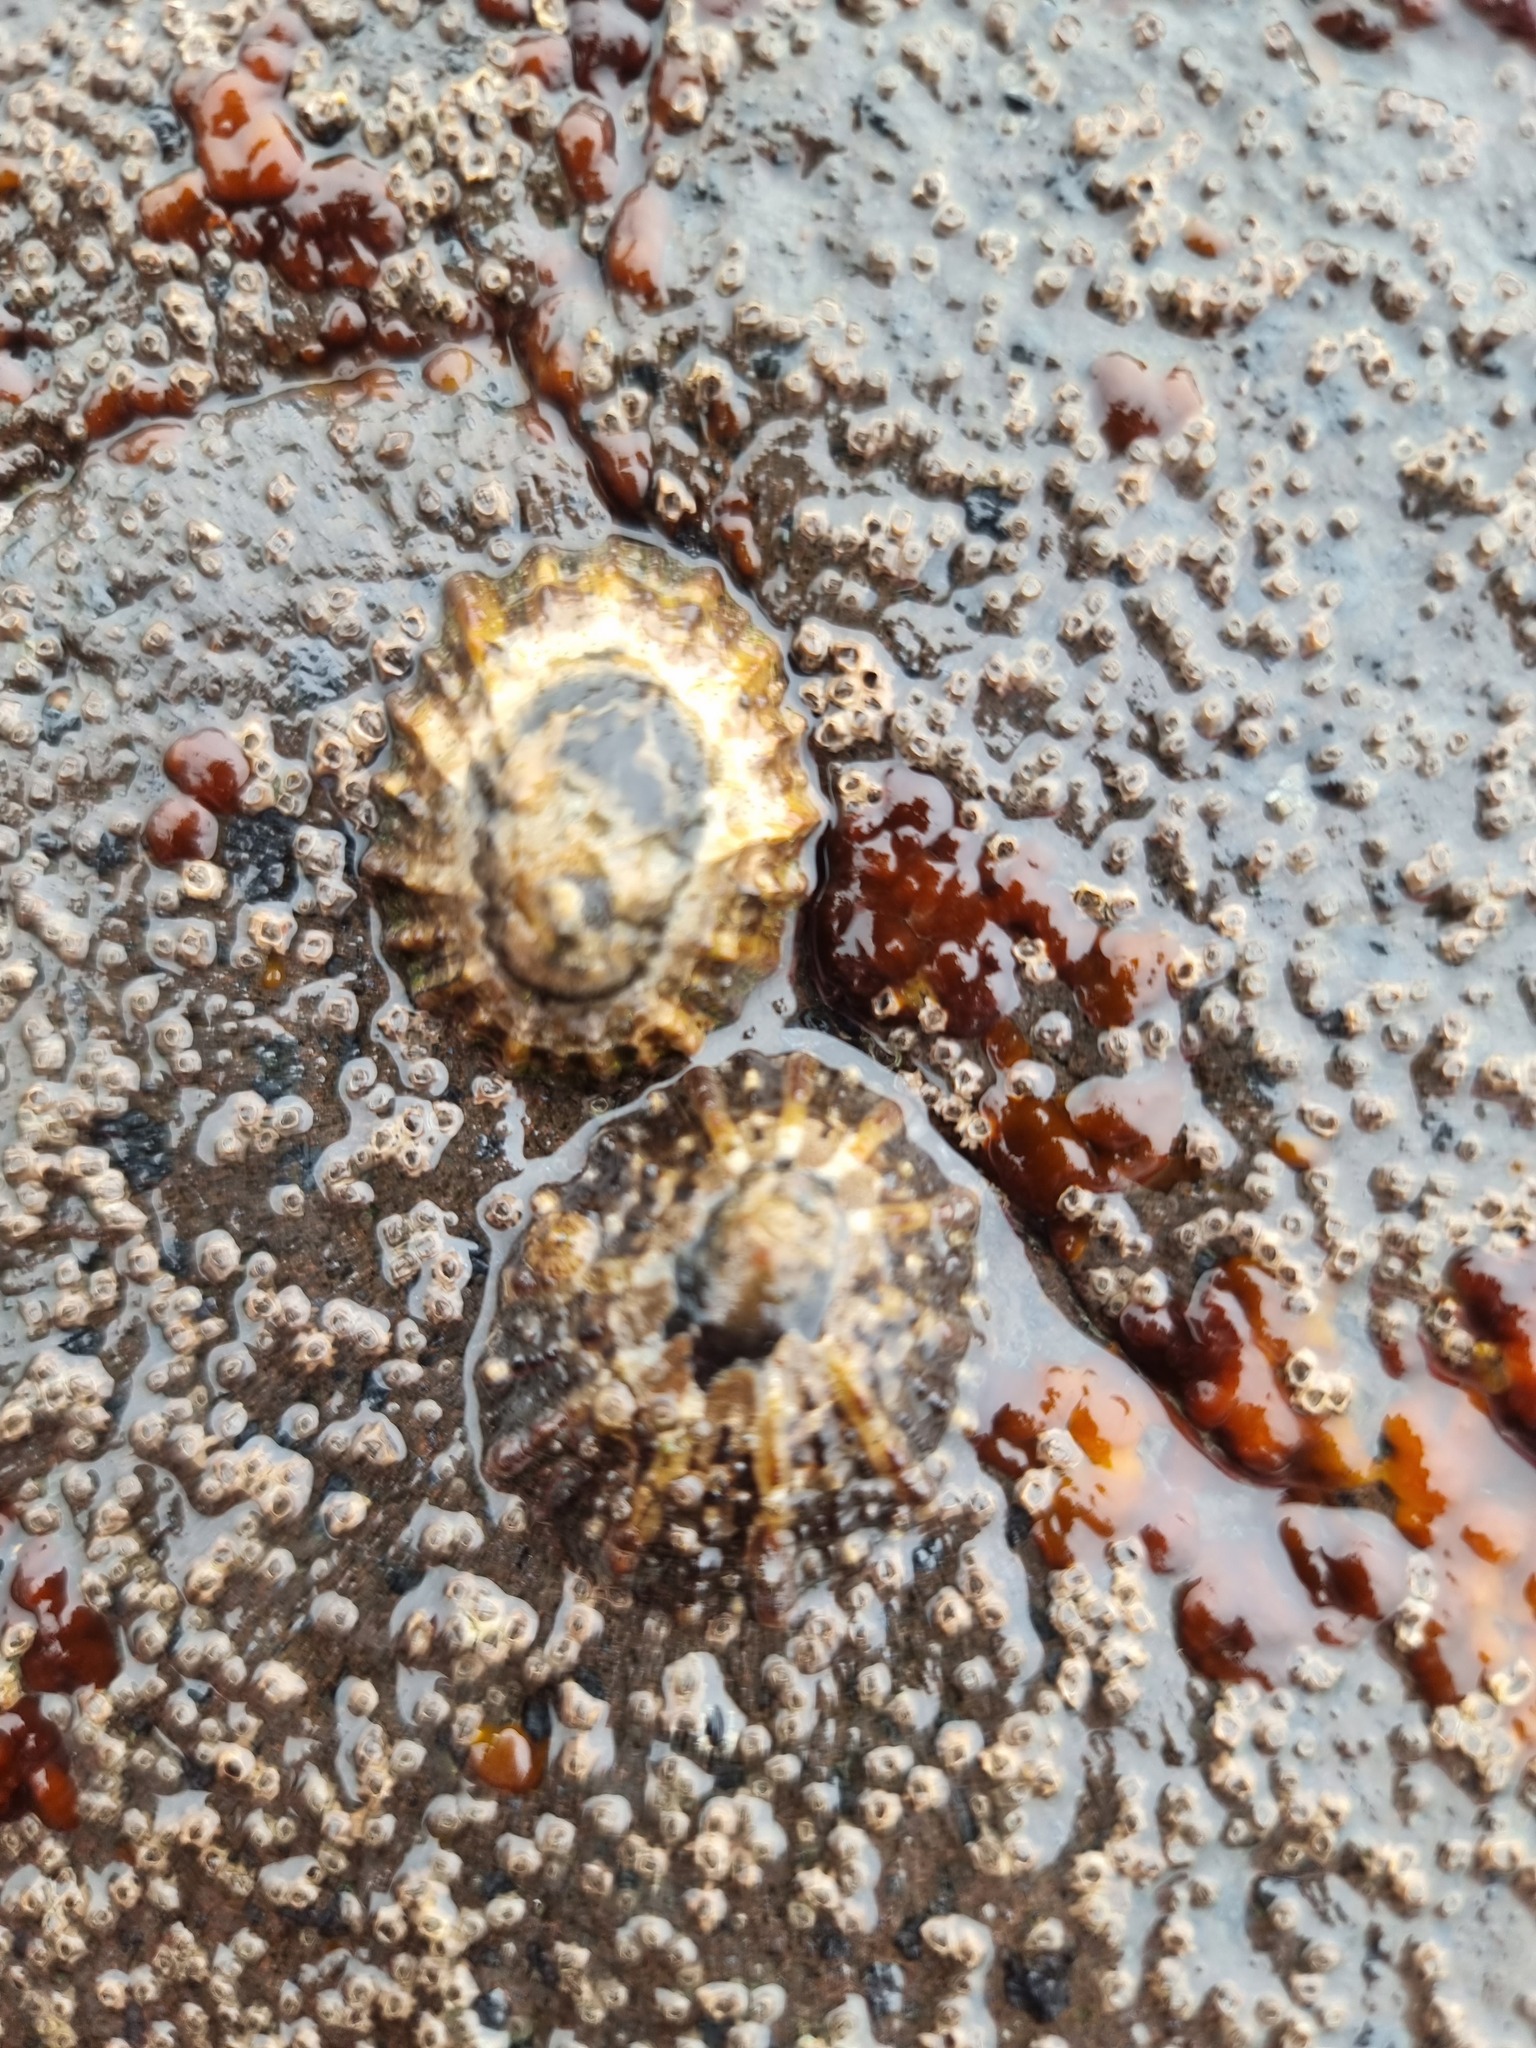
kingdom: Animalia
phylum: Mollusca
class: Gastropoda
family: Nacellidae
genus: Cellana
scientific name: Cellana ornata
